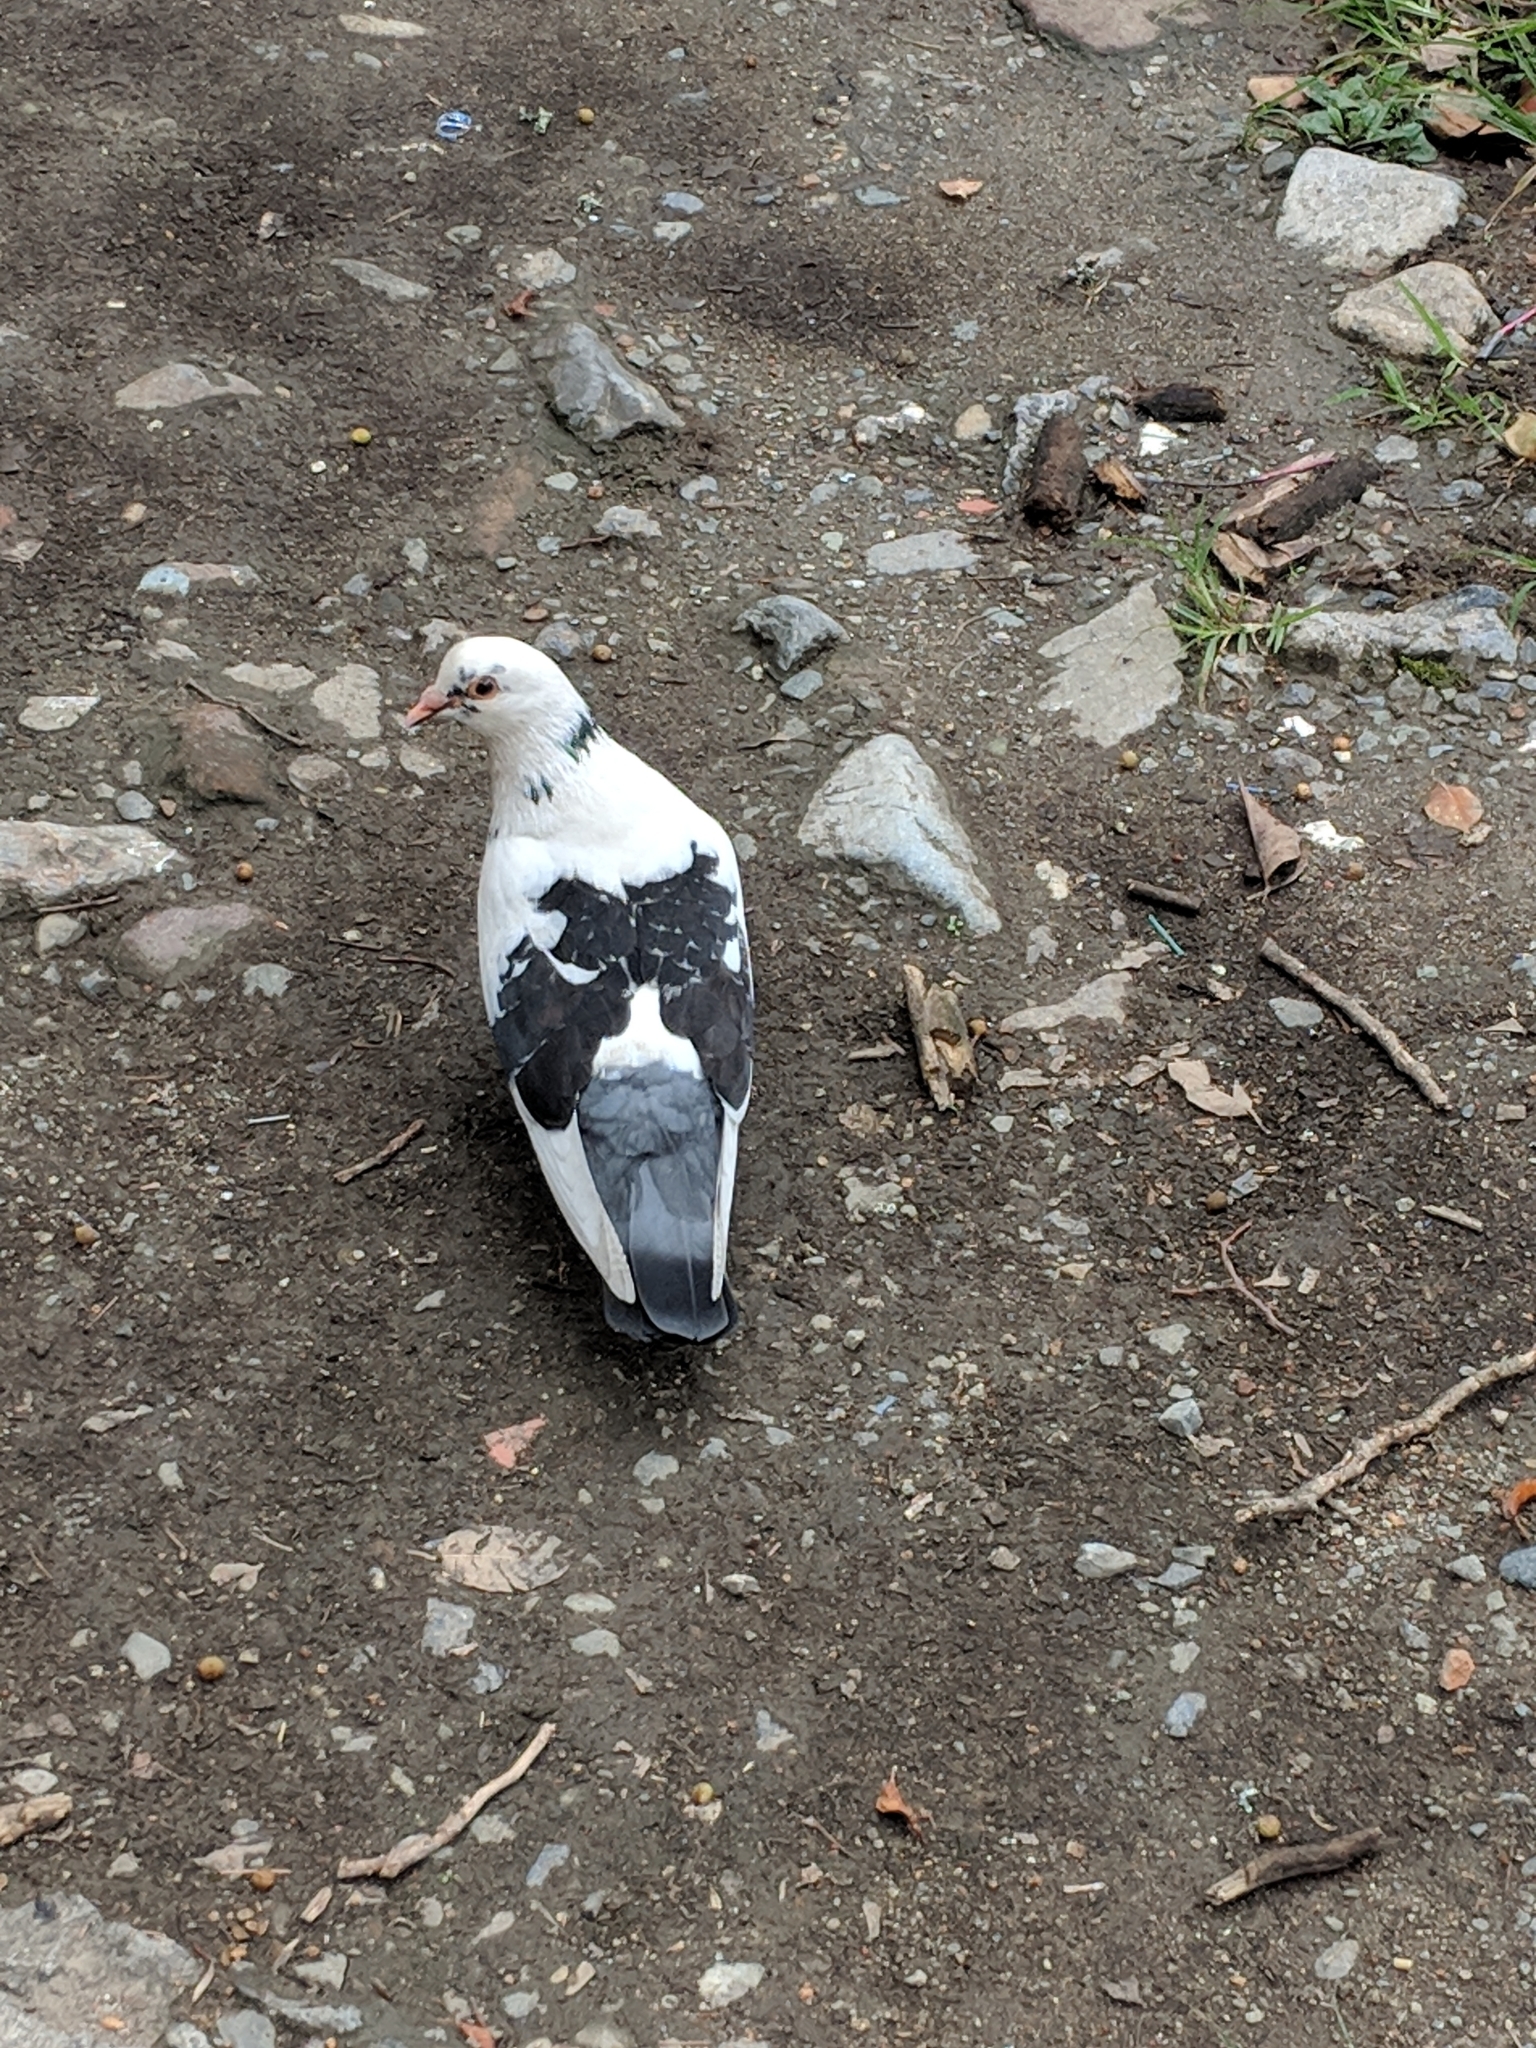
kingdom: Animalia
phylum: Chordata
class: Aves
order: Columbiformes
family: Columbidae
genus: Columba
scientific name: Columba livia
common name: Rock pigeon
